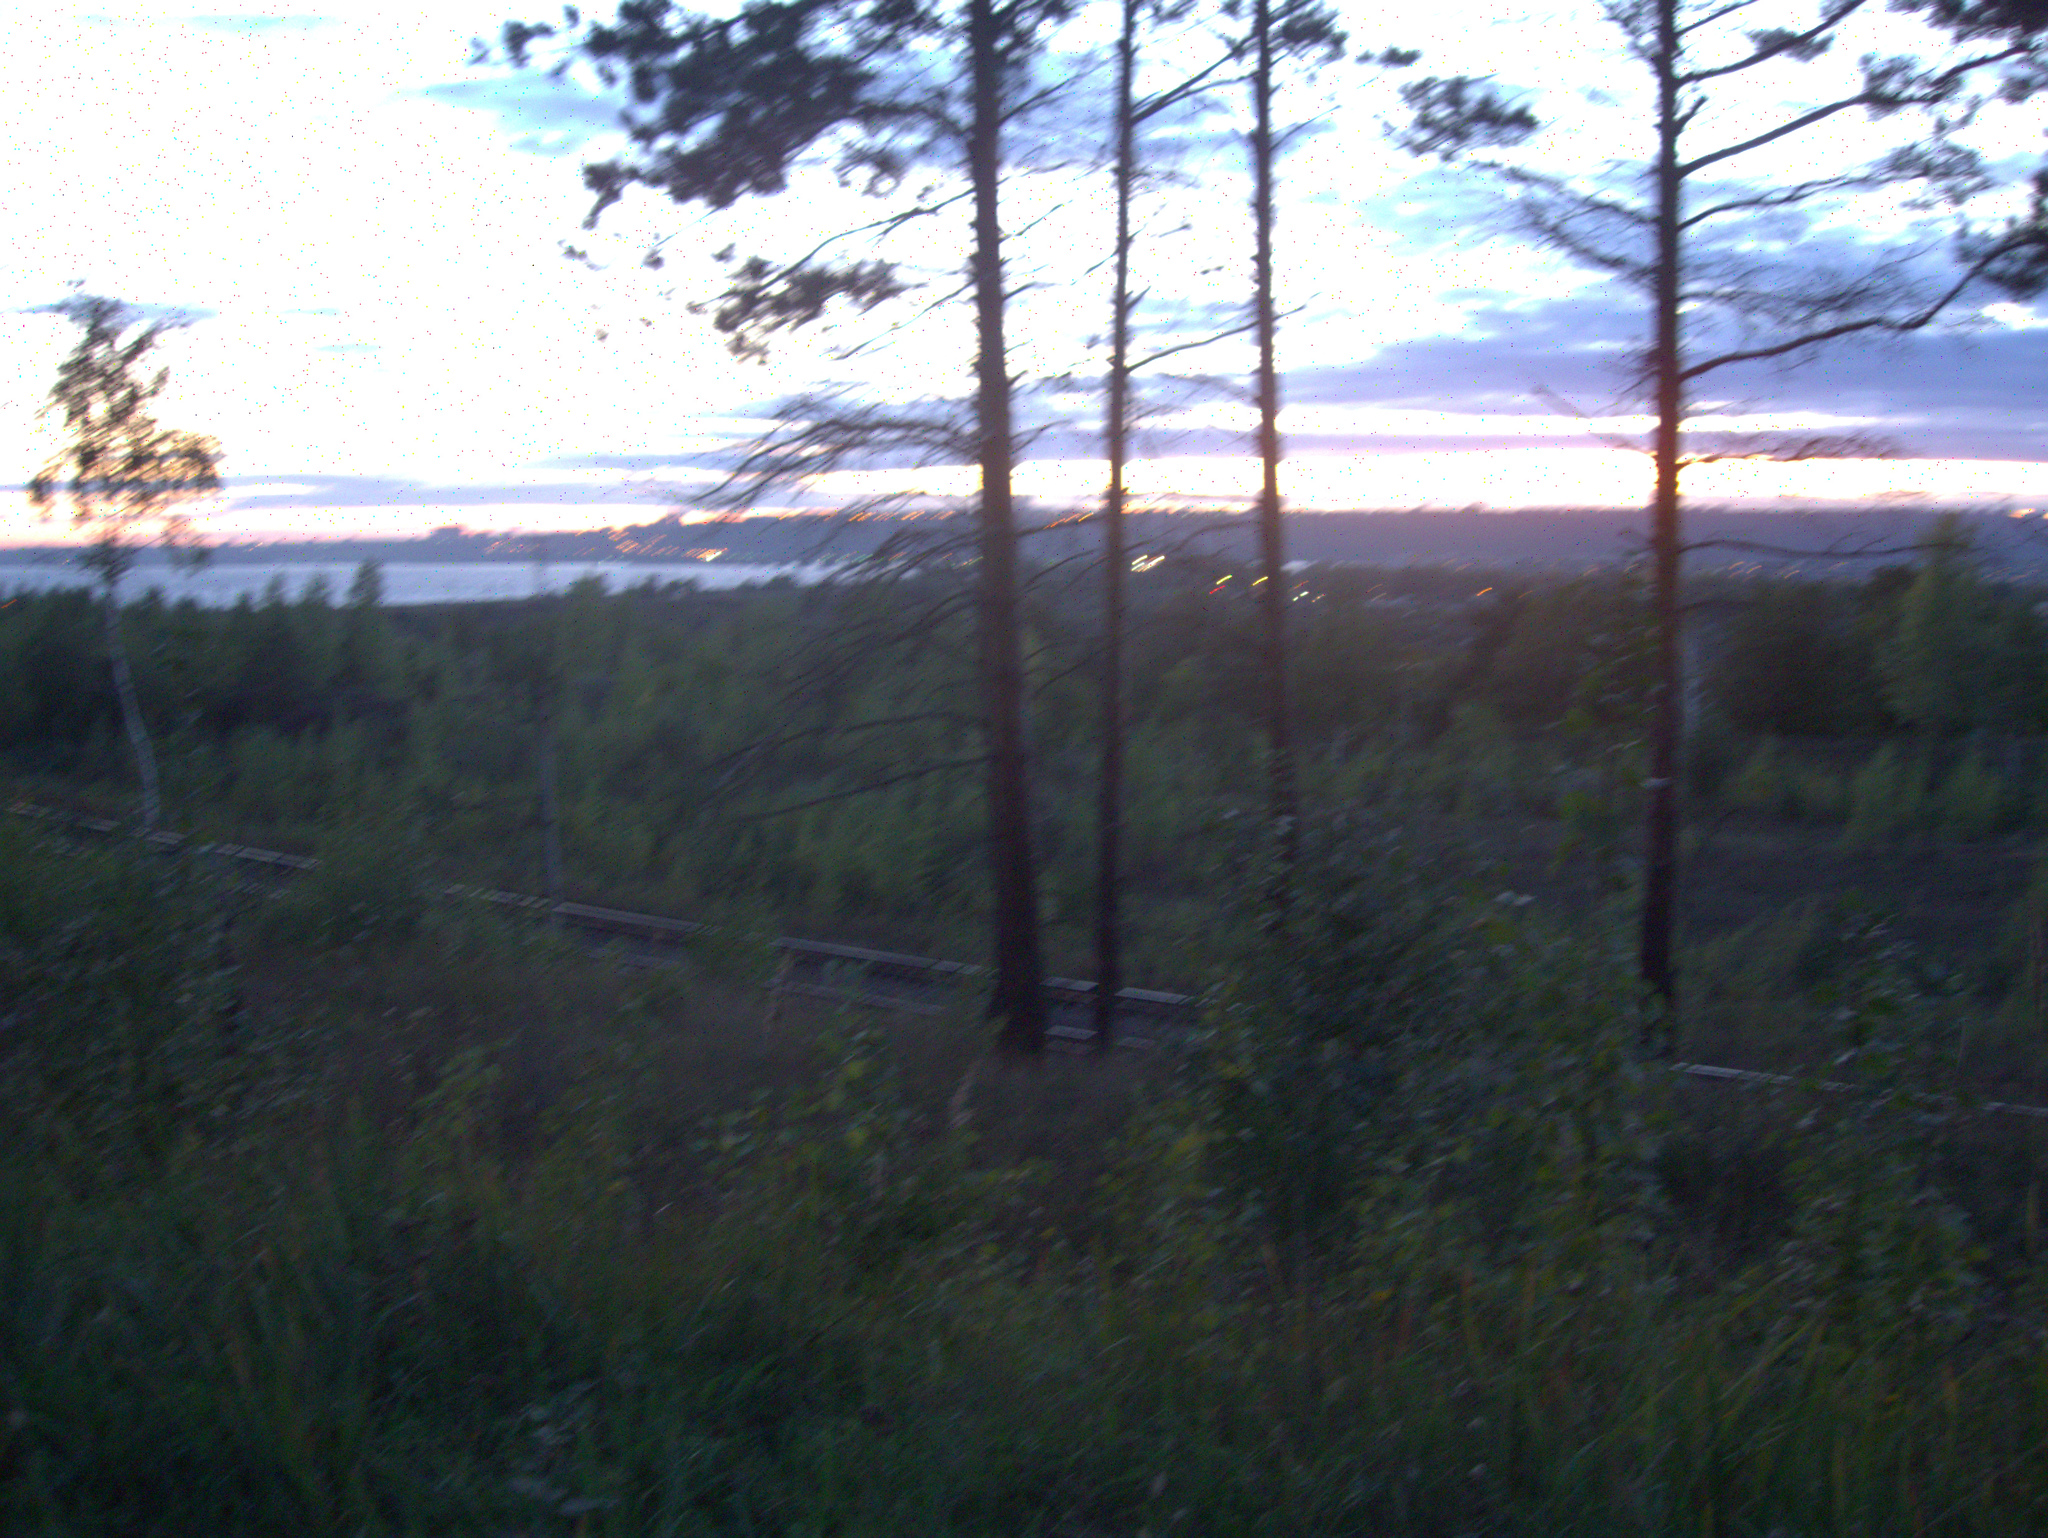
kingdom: Plantae
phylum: Tracheophyta
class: Pinopsida
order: Pinales
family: Pinaceae
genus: Pinus
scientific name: Pinus sylvestris
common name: Scots pine
